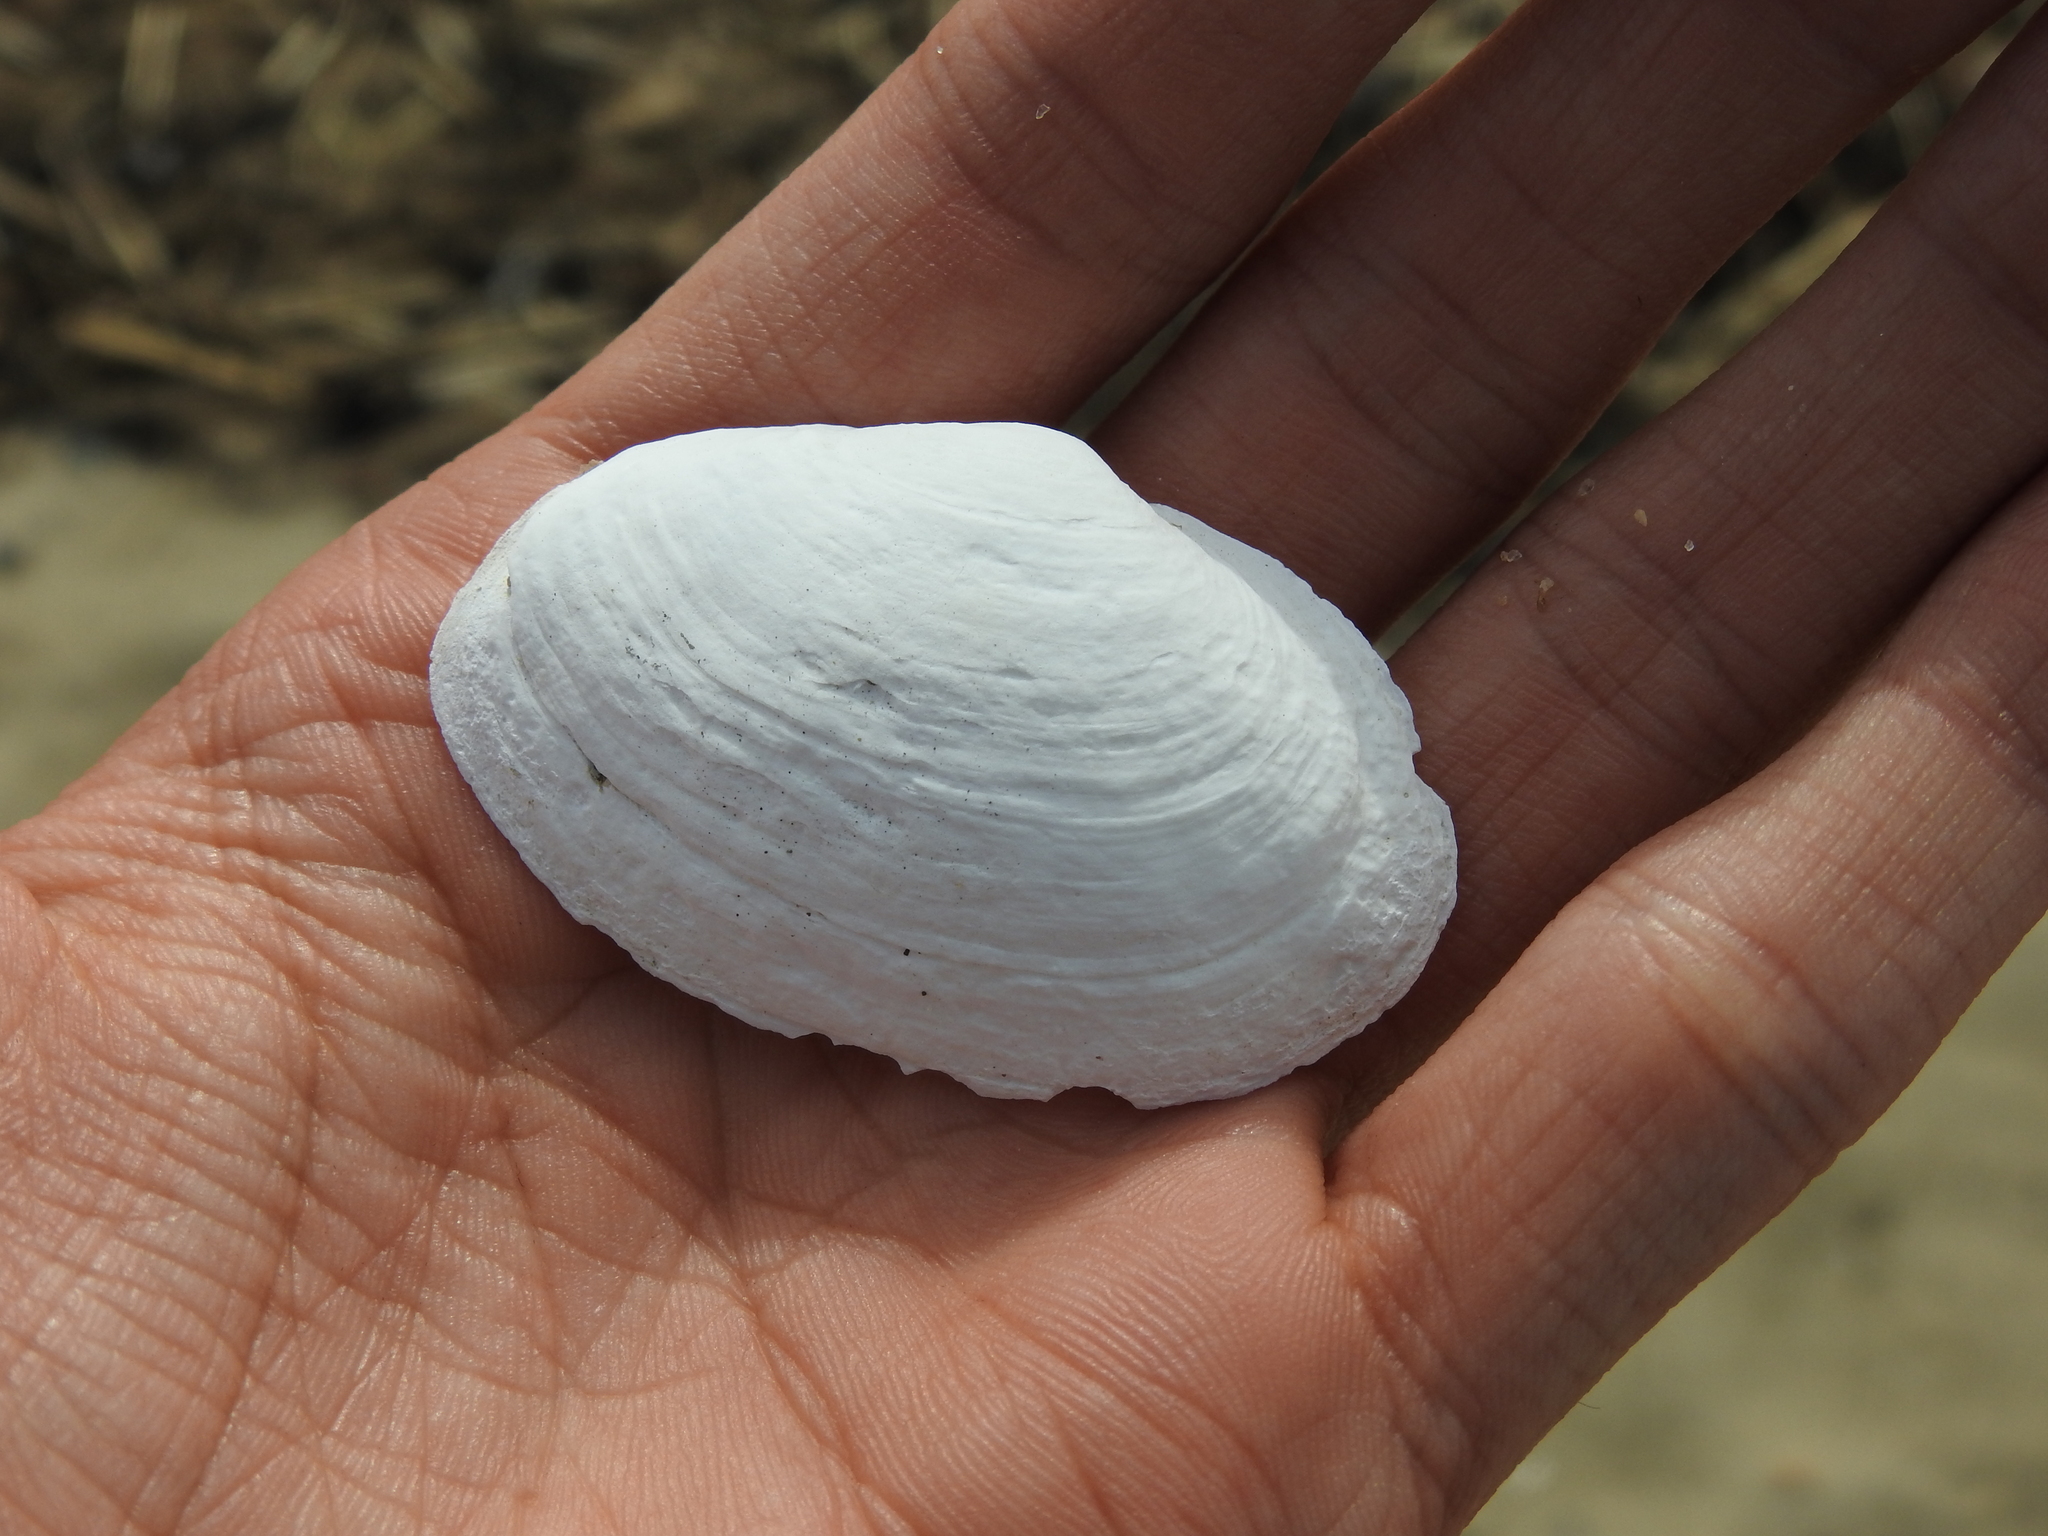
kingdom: Animalia
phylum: Mollusca
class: Bivalvia
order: Myida
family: Myidae
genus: Mya
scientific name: Mya arenaria
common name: Soft-shelled clam
